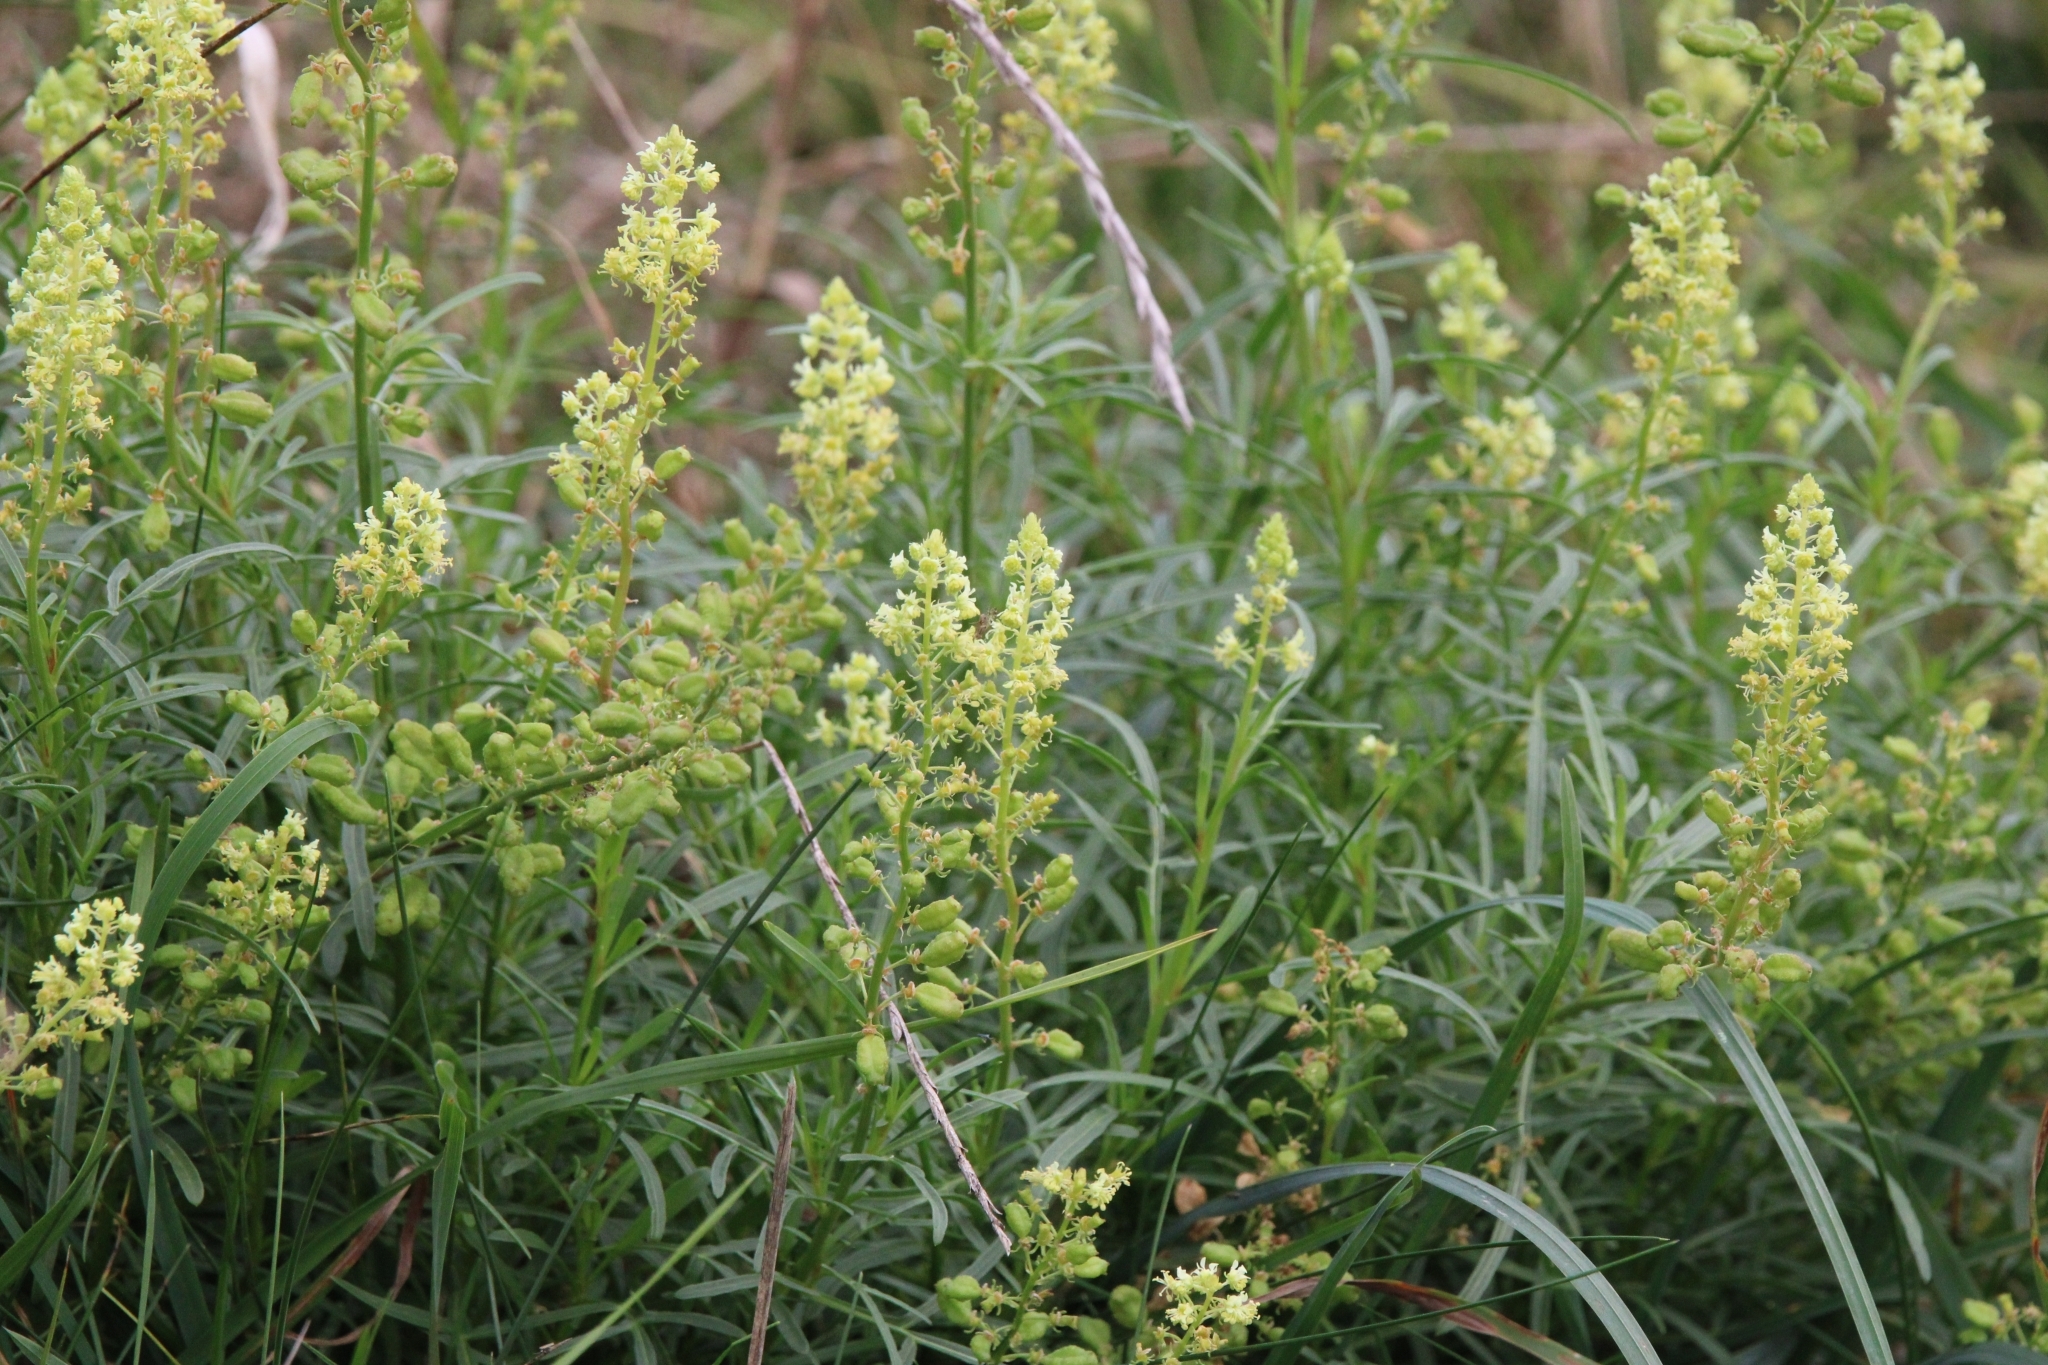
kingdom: Plantae
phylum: Tracheophyta
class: Magnoliopsida
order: Brassicales
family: Resedaceae
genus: Reseda
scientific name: Reseda lutea
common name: Wild mignonette
